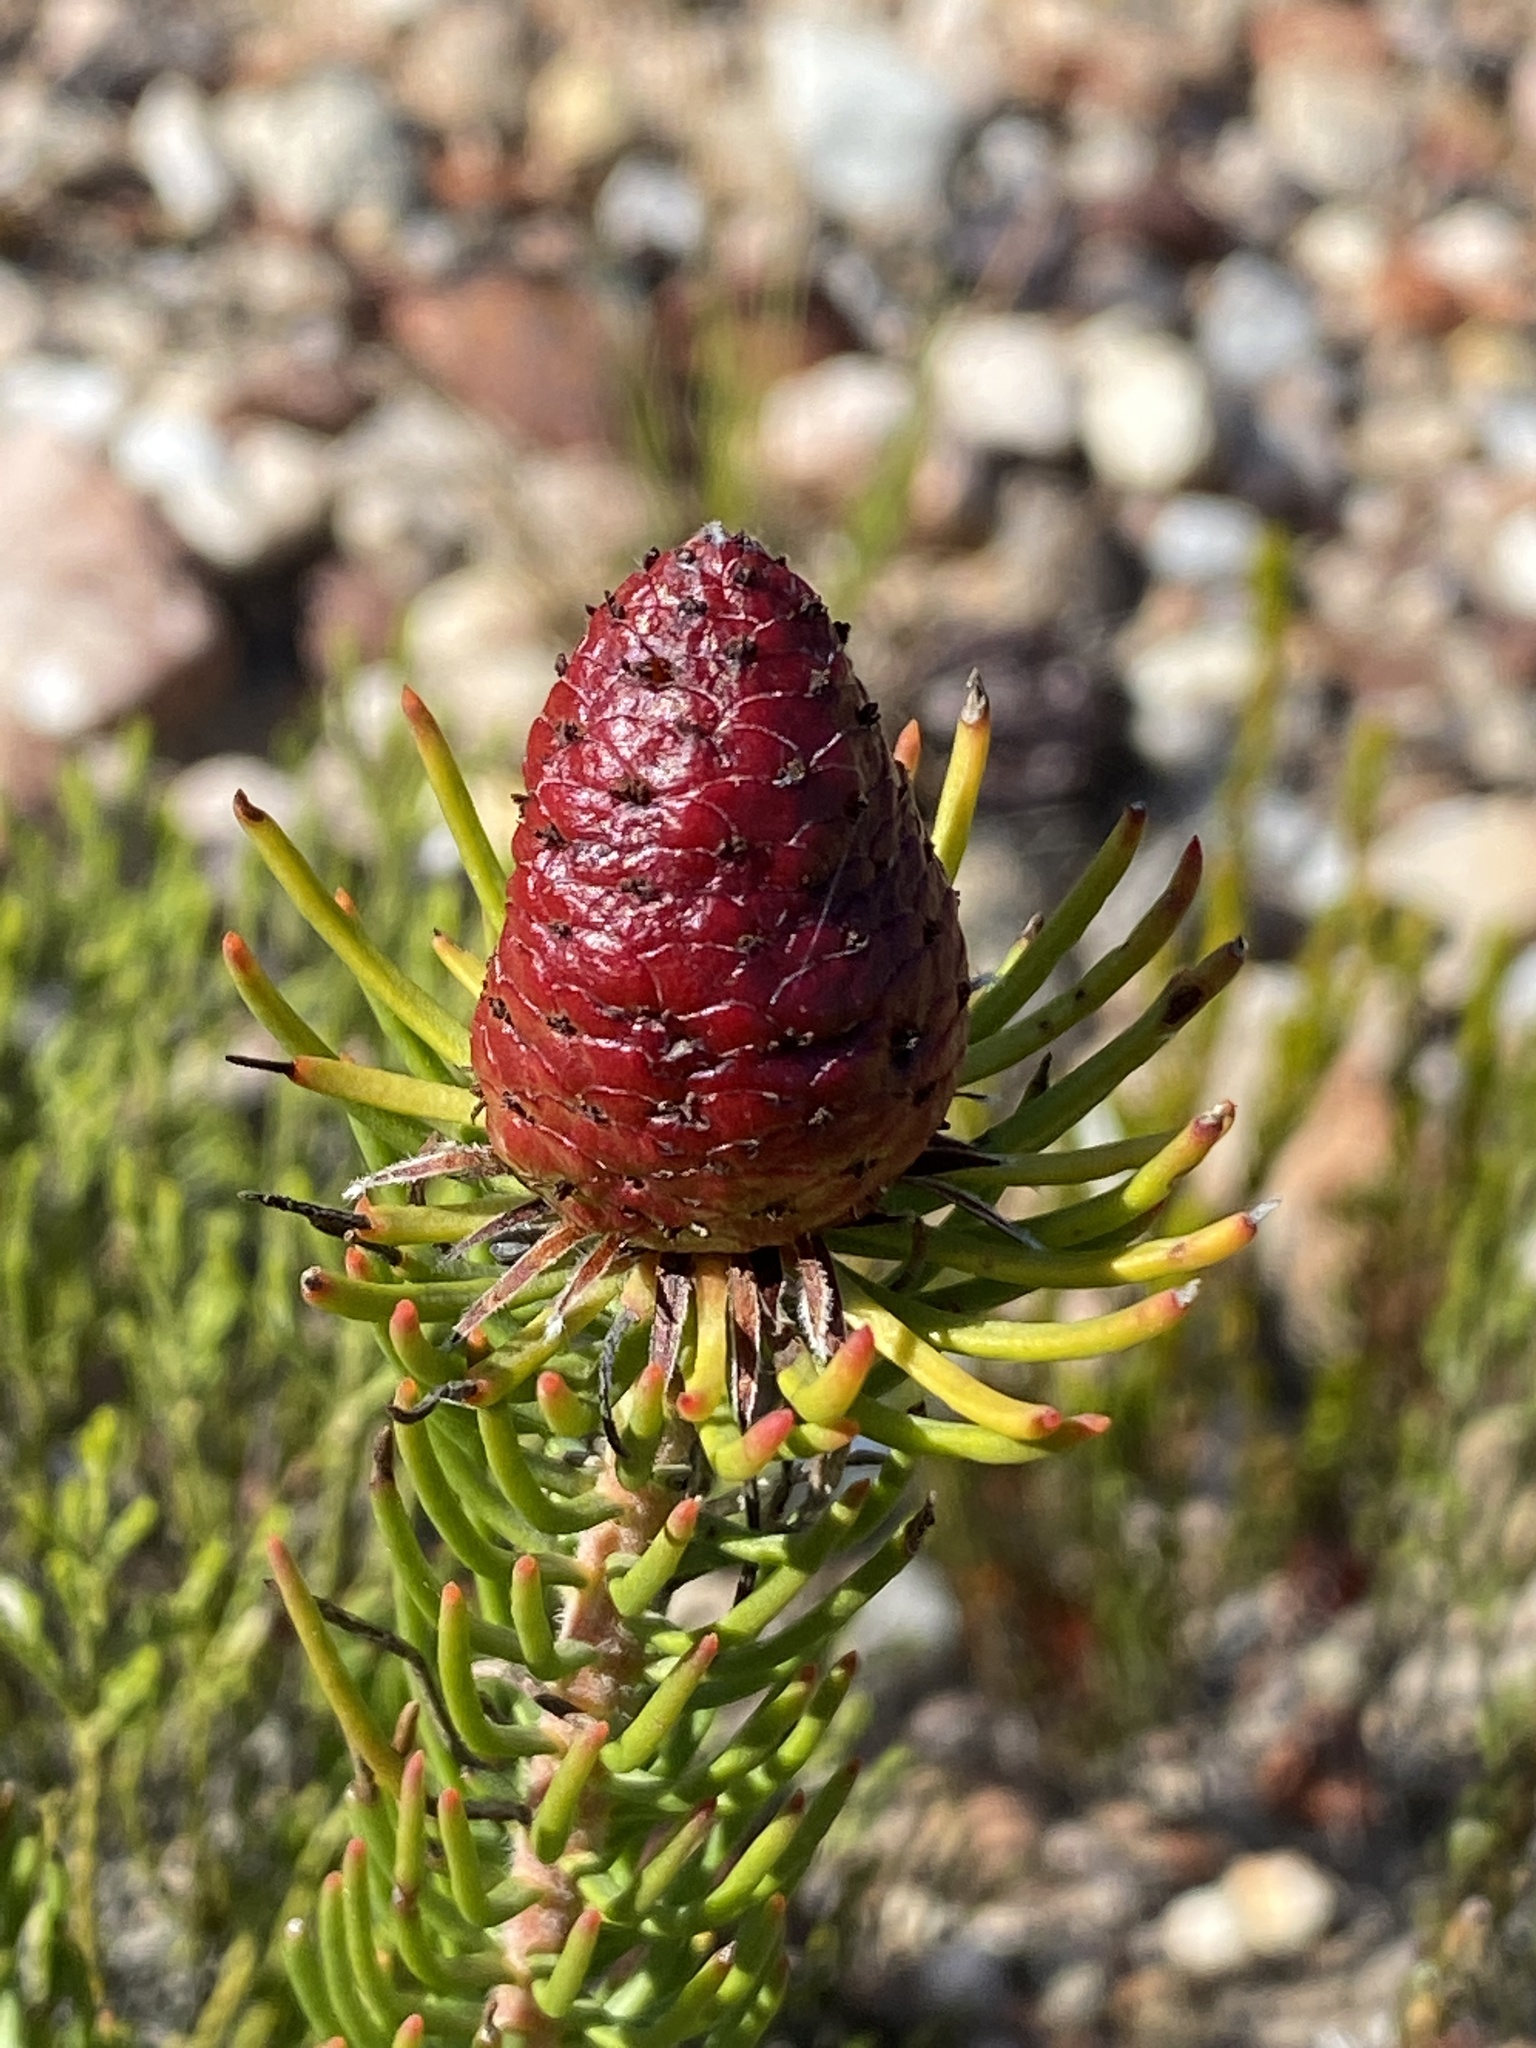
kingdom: Plantae
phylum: Tracheophyta
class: Magnoliopsida
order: Proteales
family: Proteaceae
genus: Leucadendron
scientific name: Leucadendron teretifolium
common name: Needle-leaf conebush
